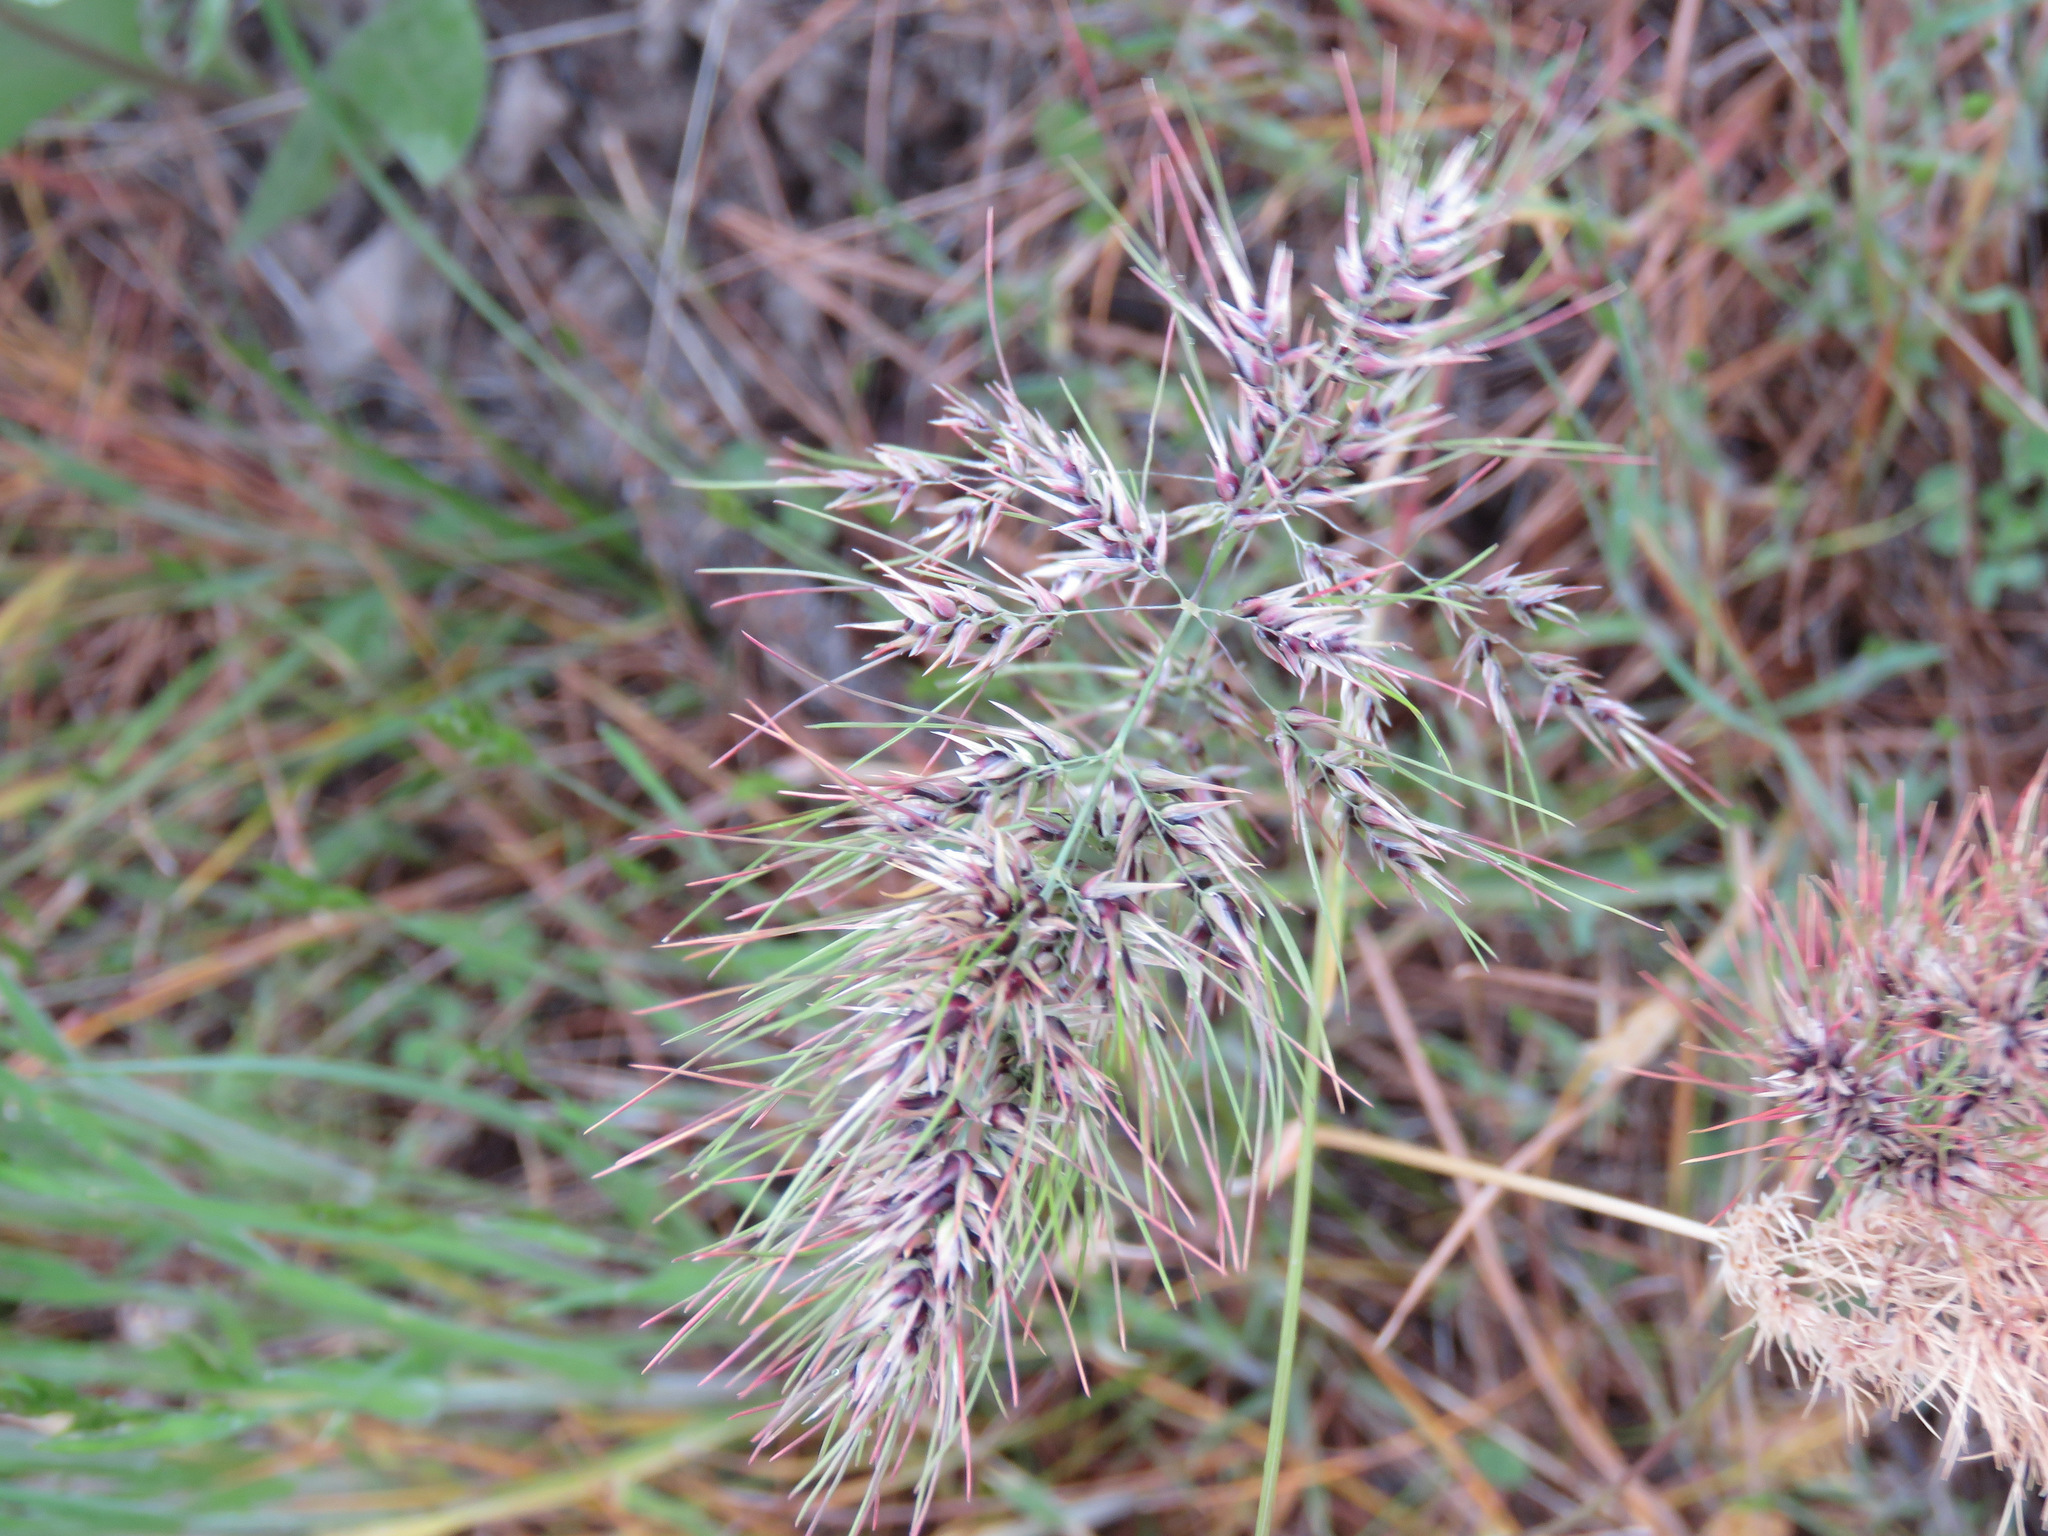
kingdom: Plantae
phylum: Tracheophyta
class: Liliopsida
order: Poales
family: Poaceae
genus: Poa
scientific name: Poa bulbosa
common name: Bulbous bluegrass
